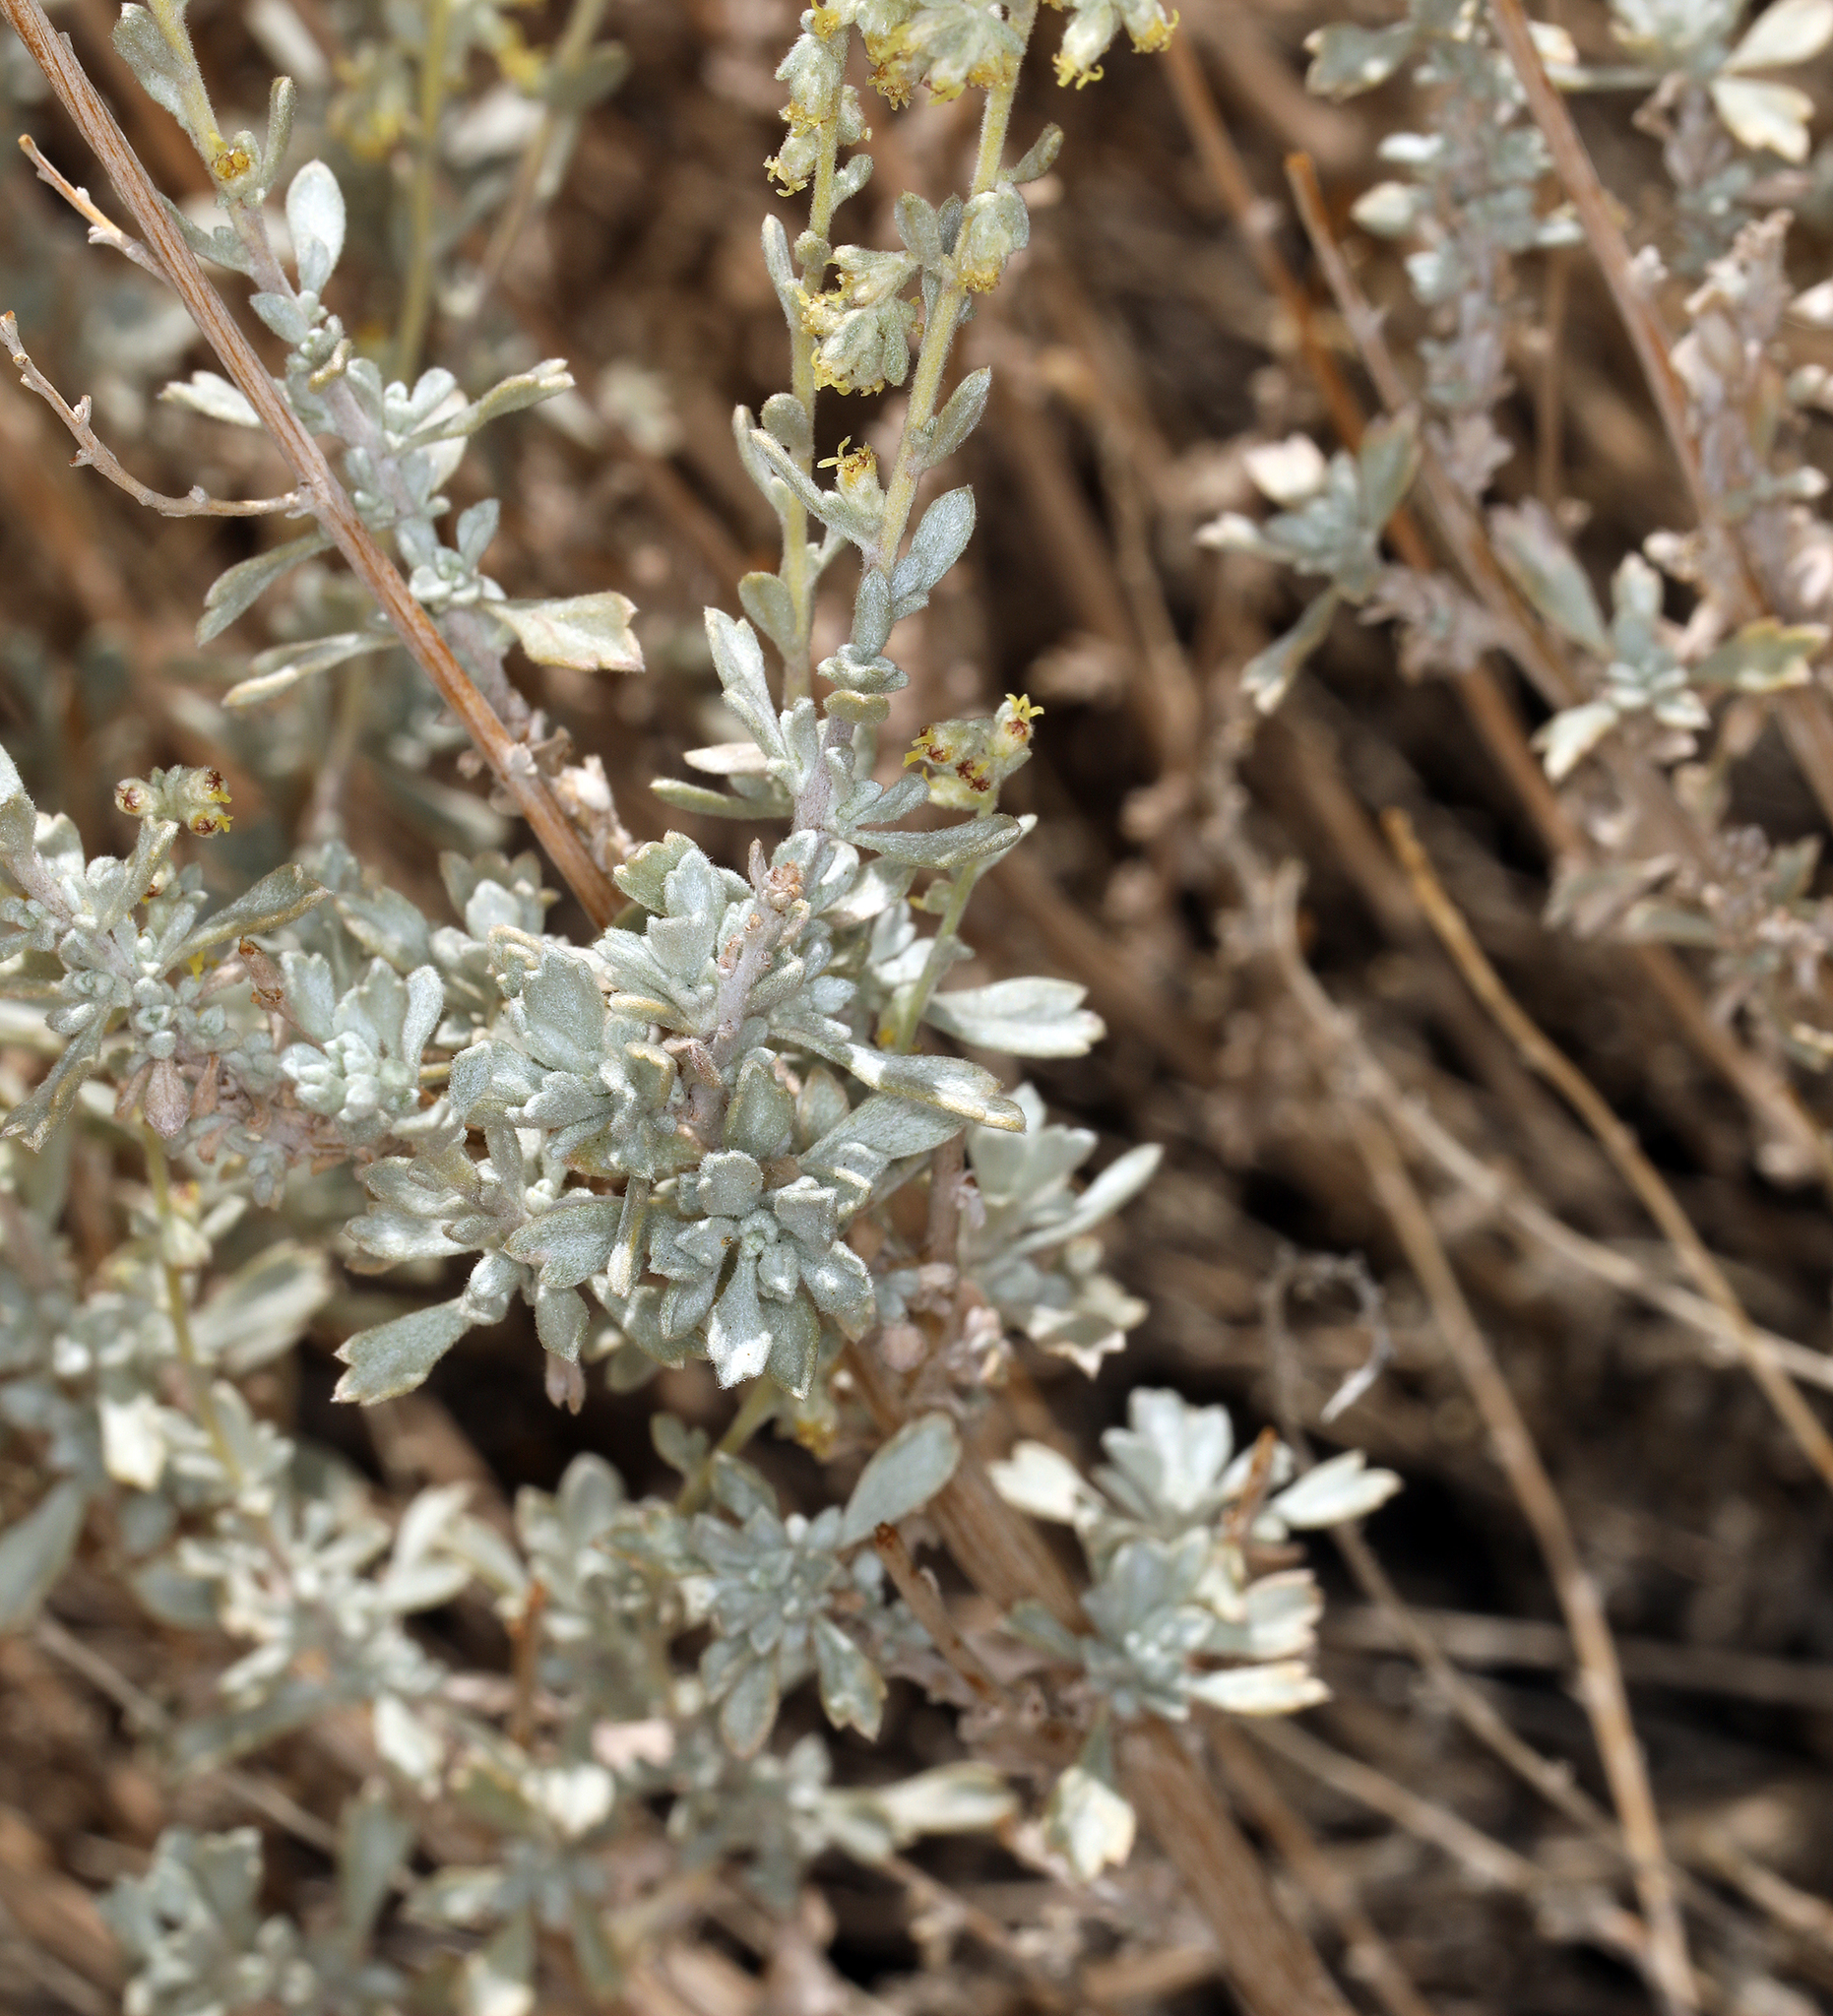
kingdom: Plantae
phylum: Tracheophyta
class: Magnoliopsida
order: Asterales
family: Asteraceae
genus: Artemisia
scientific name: Artemisia bigelovii
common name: Bigelow sagebrush
